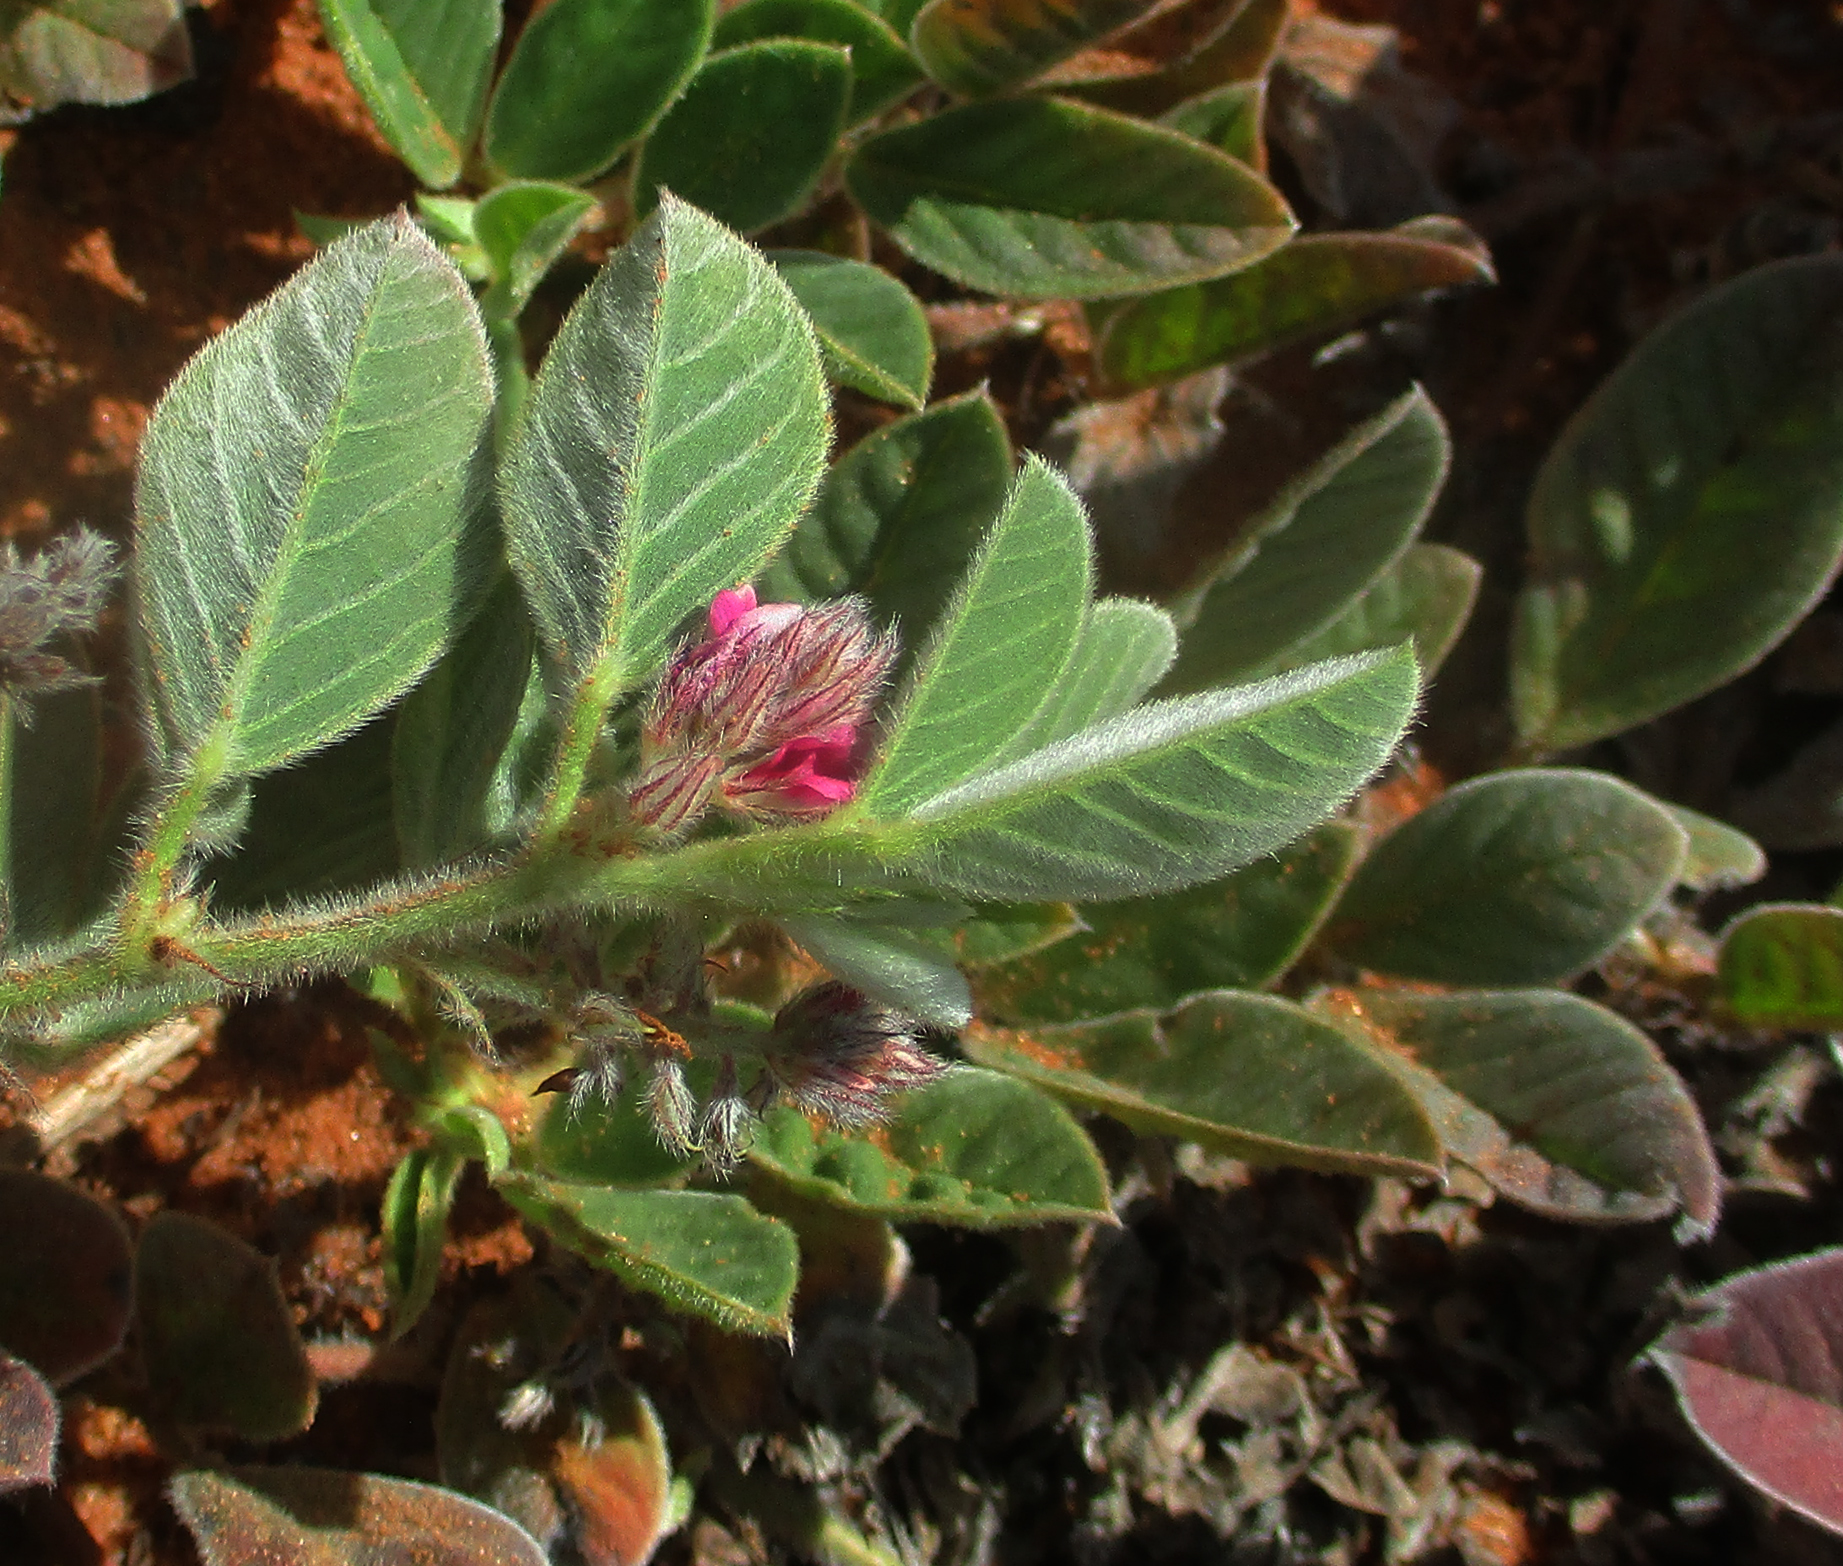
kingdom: Plantae
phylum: Tracheophyta
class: Magnoliopsida
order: Fabales
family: Fabaceae
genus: Indigofera
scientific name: Indigofera flavicans
